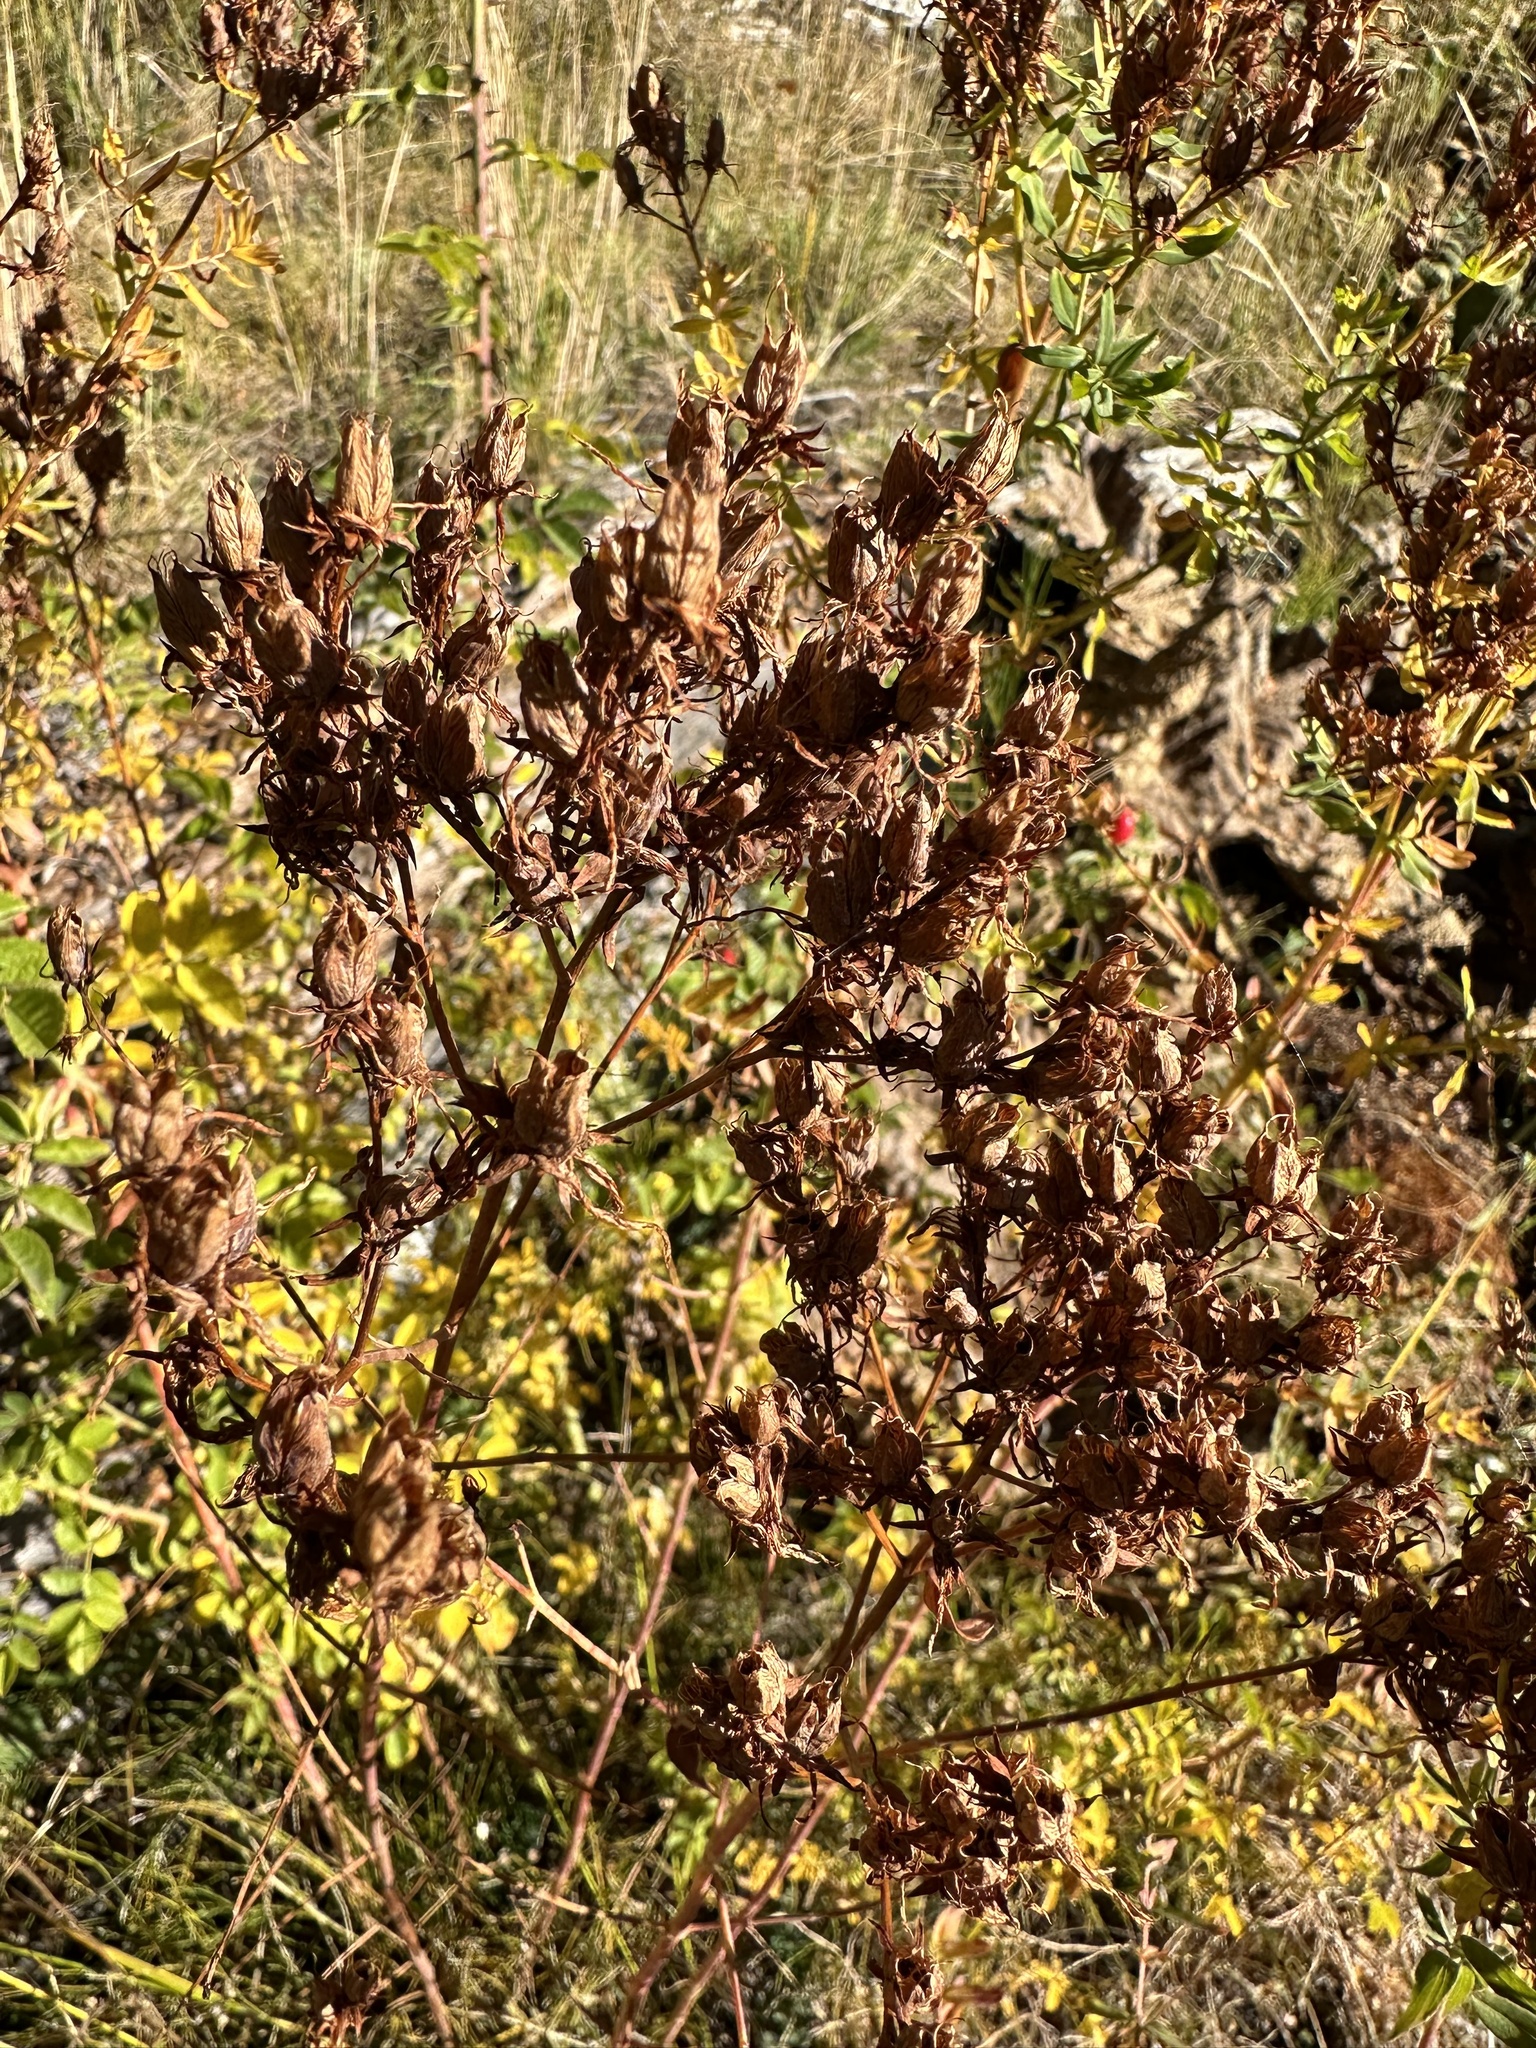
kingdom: Plantae
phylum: Tracheophyta
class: Magnoliopsida
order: Malpighiales
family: Hypericaceae
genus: Hypericum
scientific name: Hypericum perforatum
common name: Common st. johnswort
